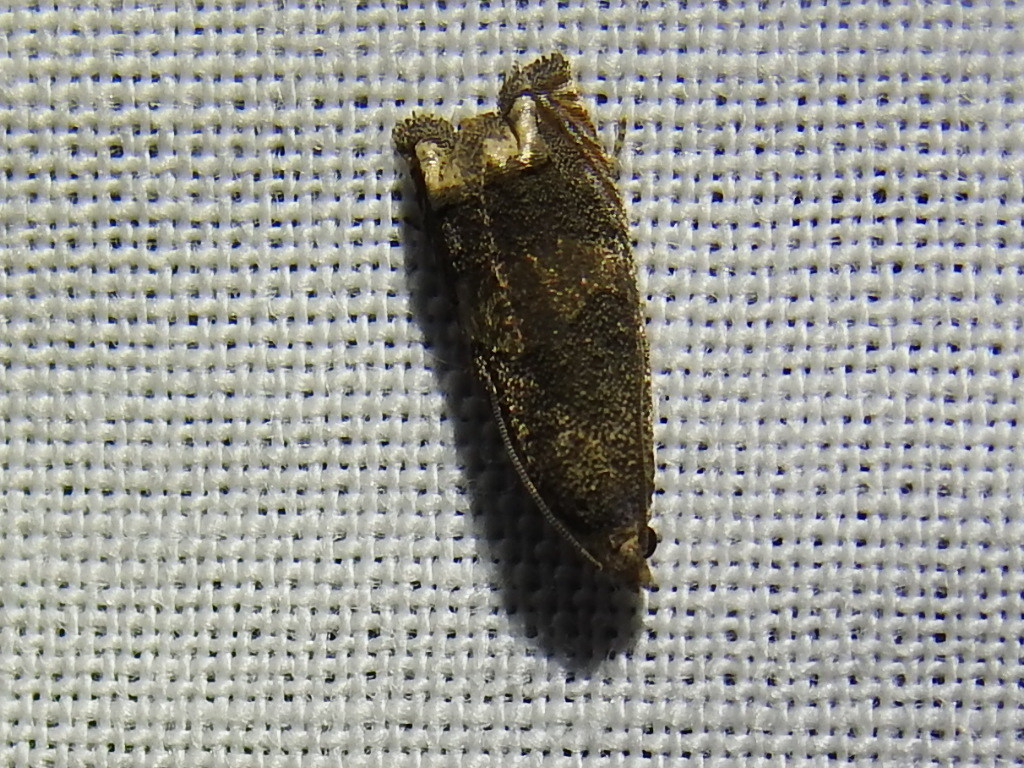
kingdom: Animalia
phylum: Arthropoda
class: Insecta
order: Lepidoptera
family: Tortricidae
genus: Epiblema
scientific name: Epiblema strenuana
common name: Ragweed borer moth
